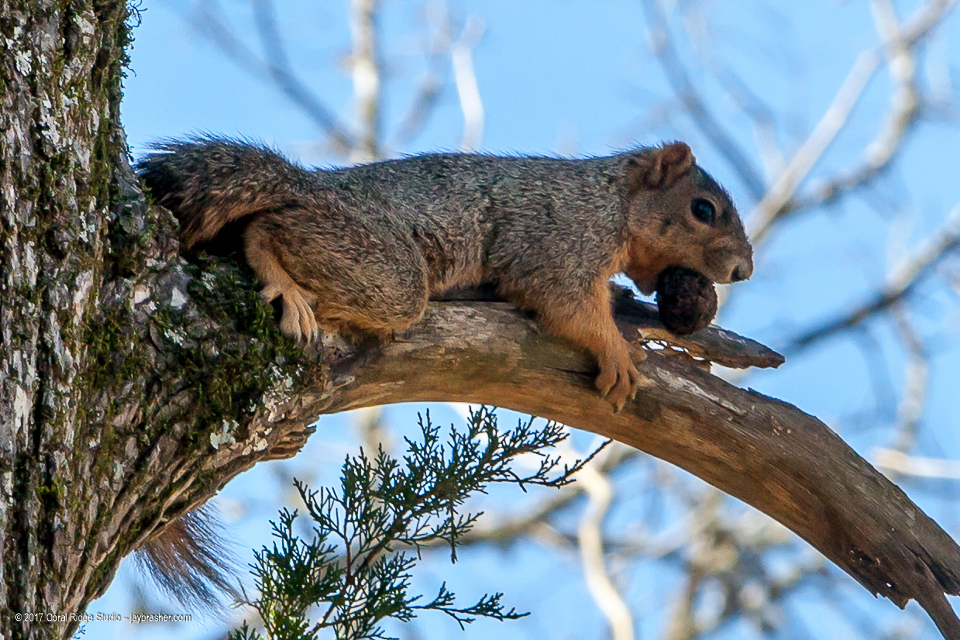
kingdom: Animalia
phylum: Chordata
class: Mammalia
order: Rodentia
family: Sciuridae
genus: Sciurus
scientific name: Sciurus niger
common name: Fox squirrel
